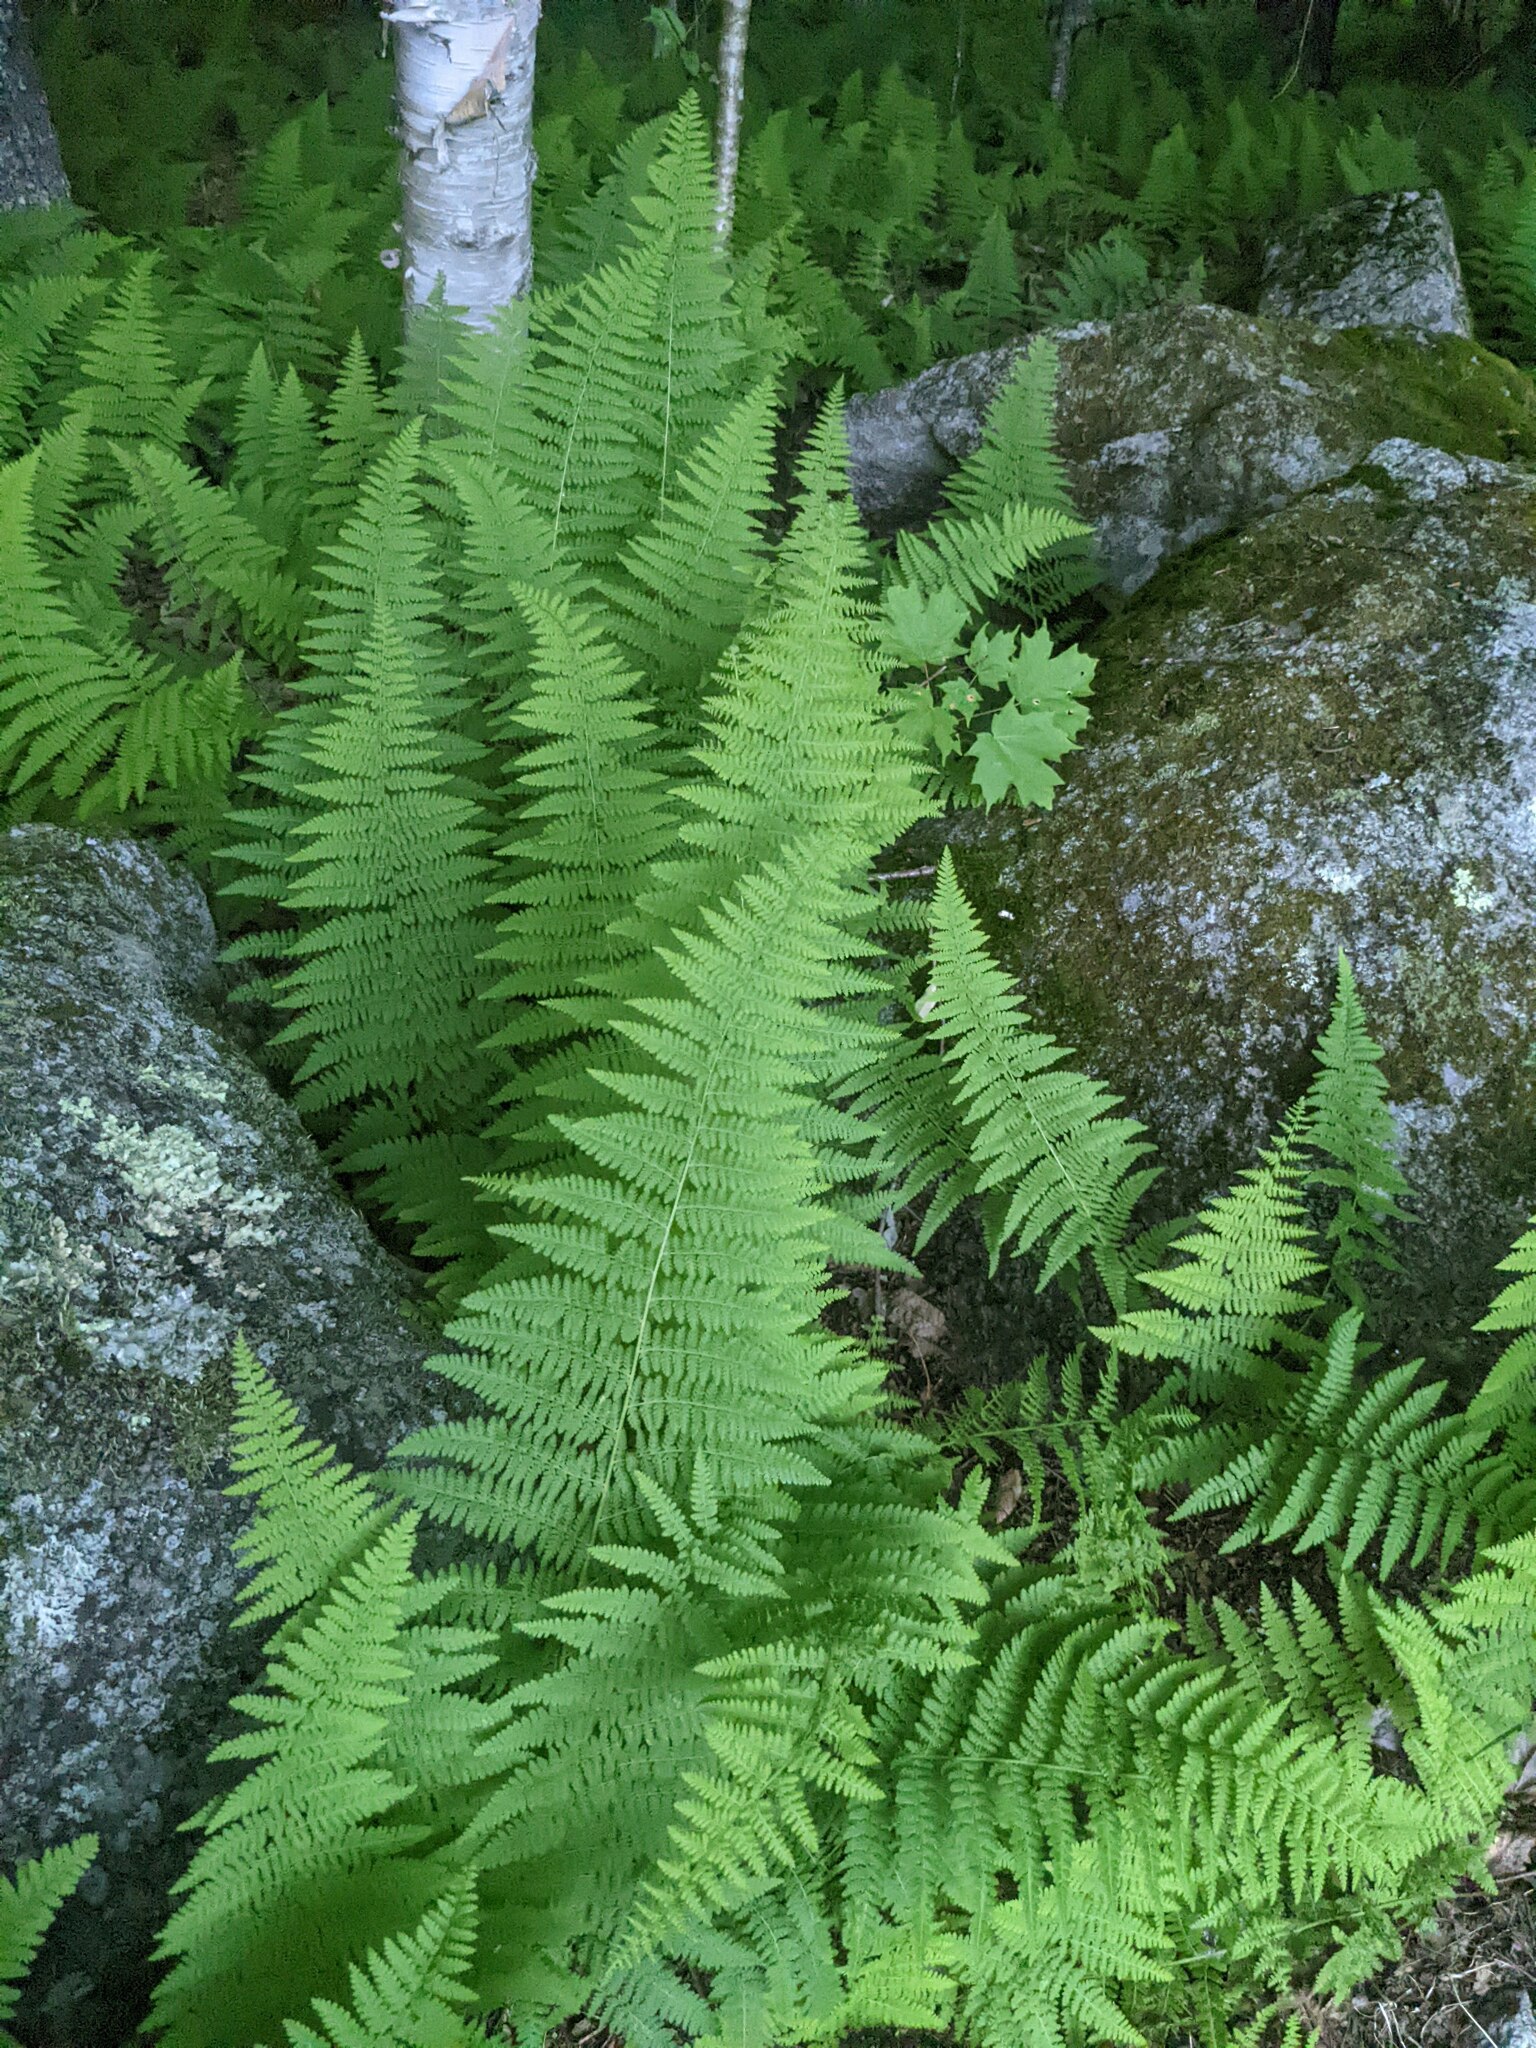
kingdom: Plantae
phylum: Tracheophyta
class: Polypodiopsida
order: Polypodiales
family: Dennstaedtiaceae
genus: Sitobolium
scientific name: Sitobolium punctilobum
